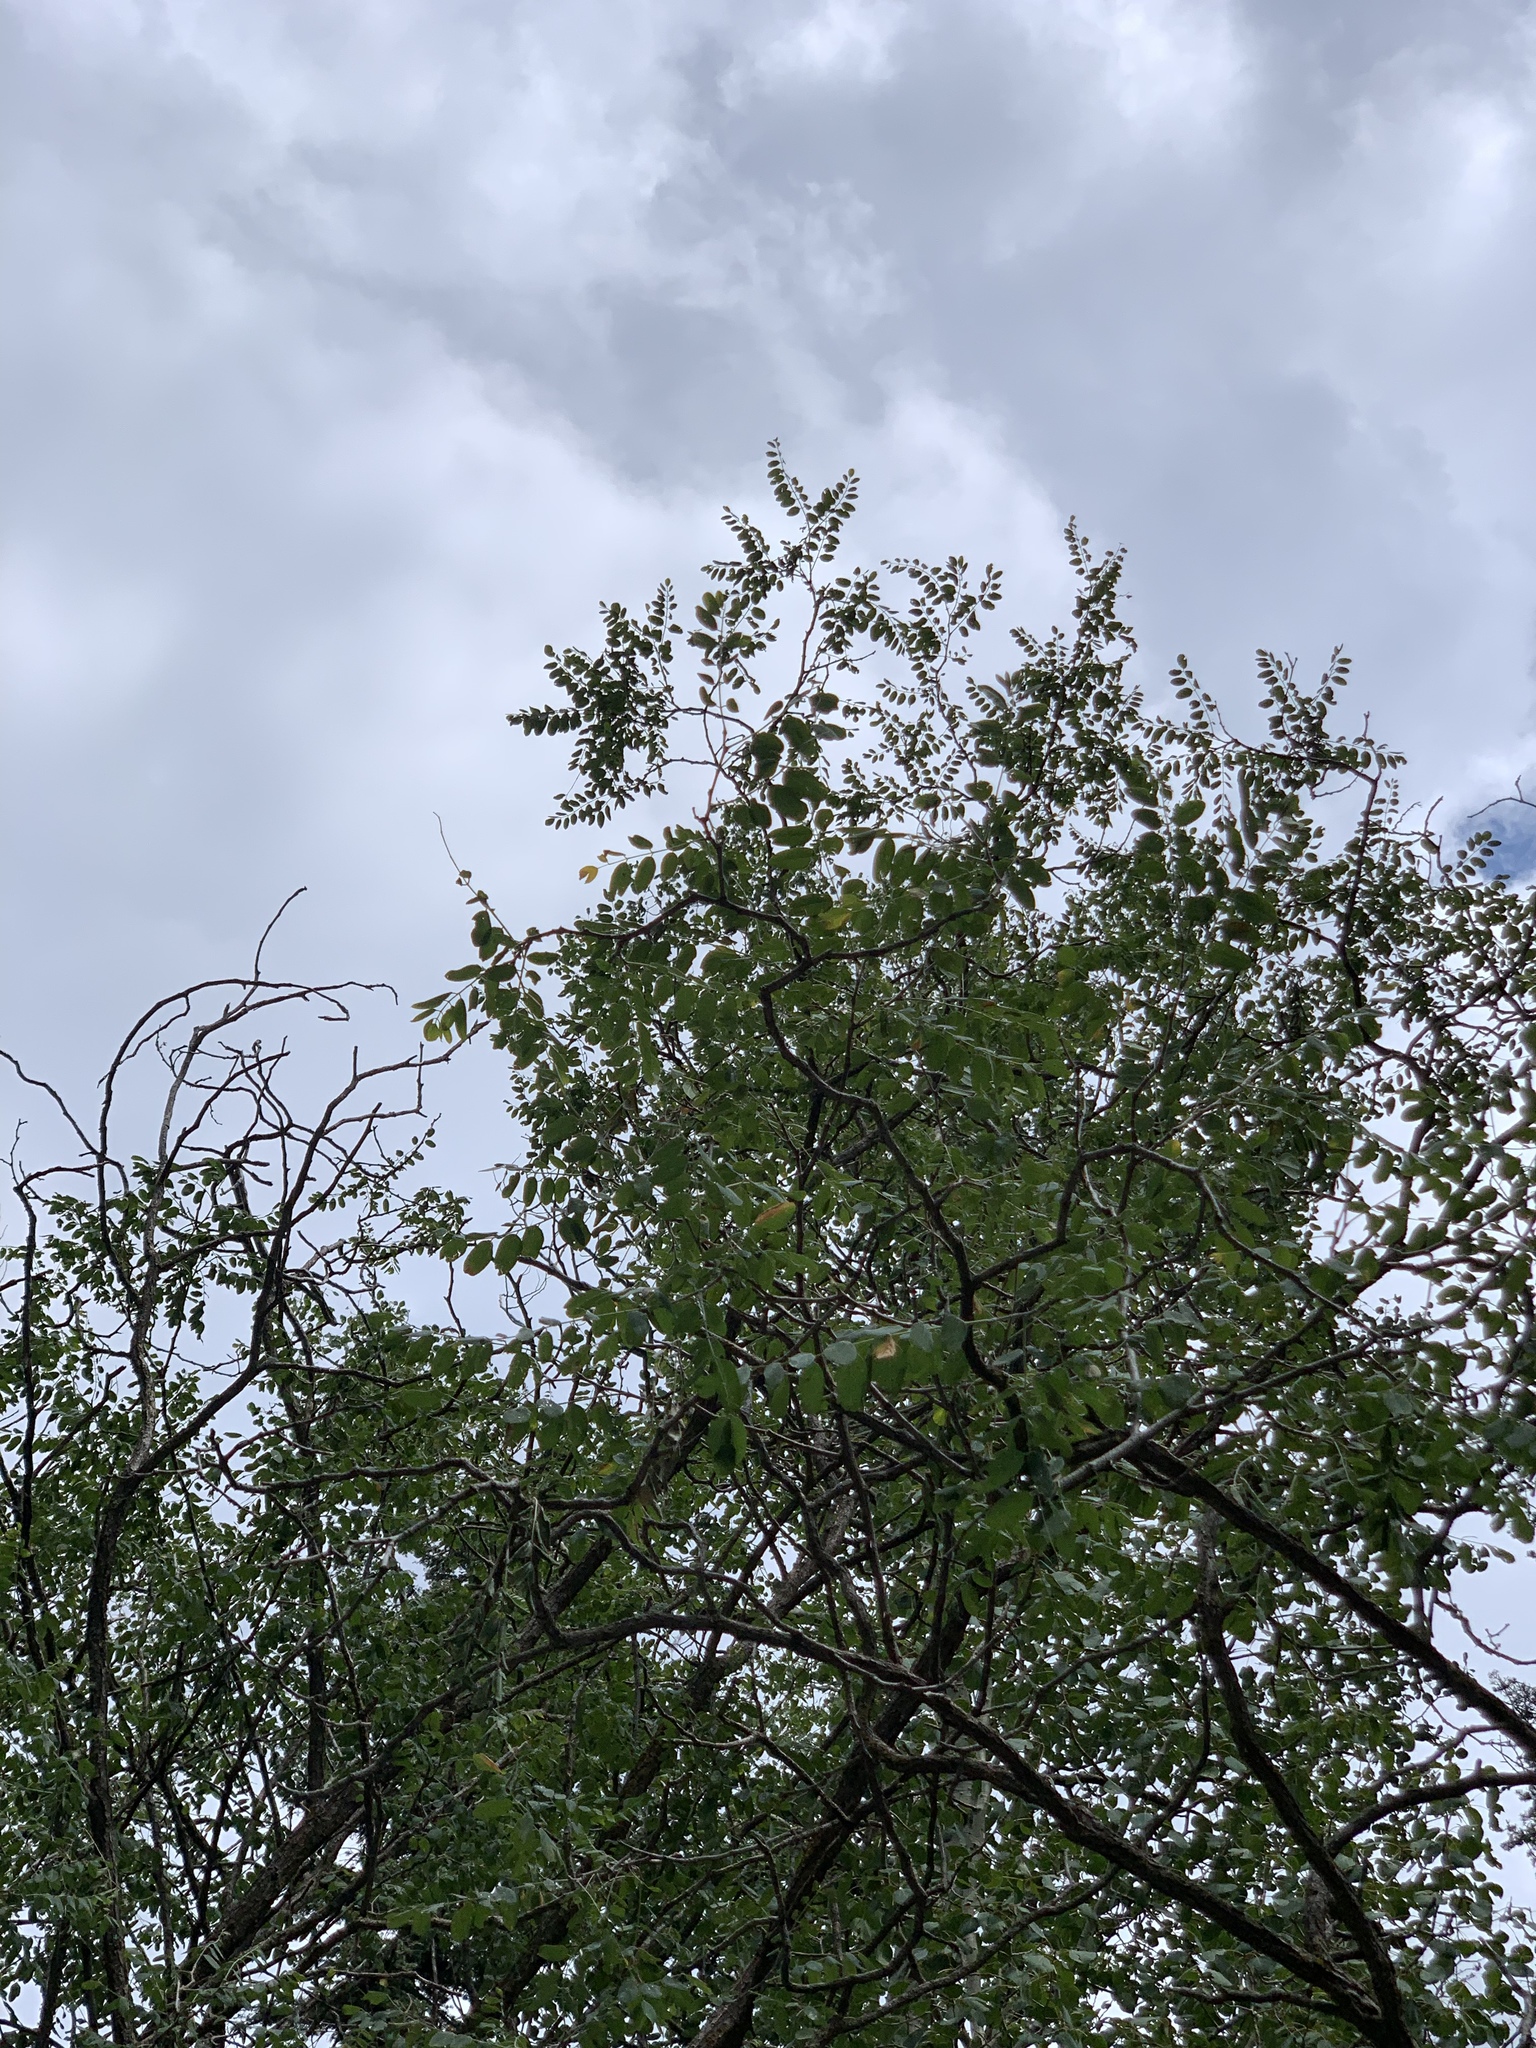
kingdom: Plantae
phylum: Tracheophyta
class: Magnoliopsida
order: Fabales
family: Fabaceae
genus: Robinia
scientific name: Robinia neomexicana
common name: New mexico locust
